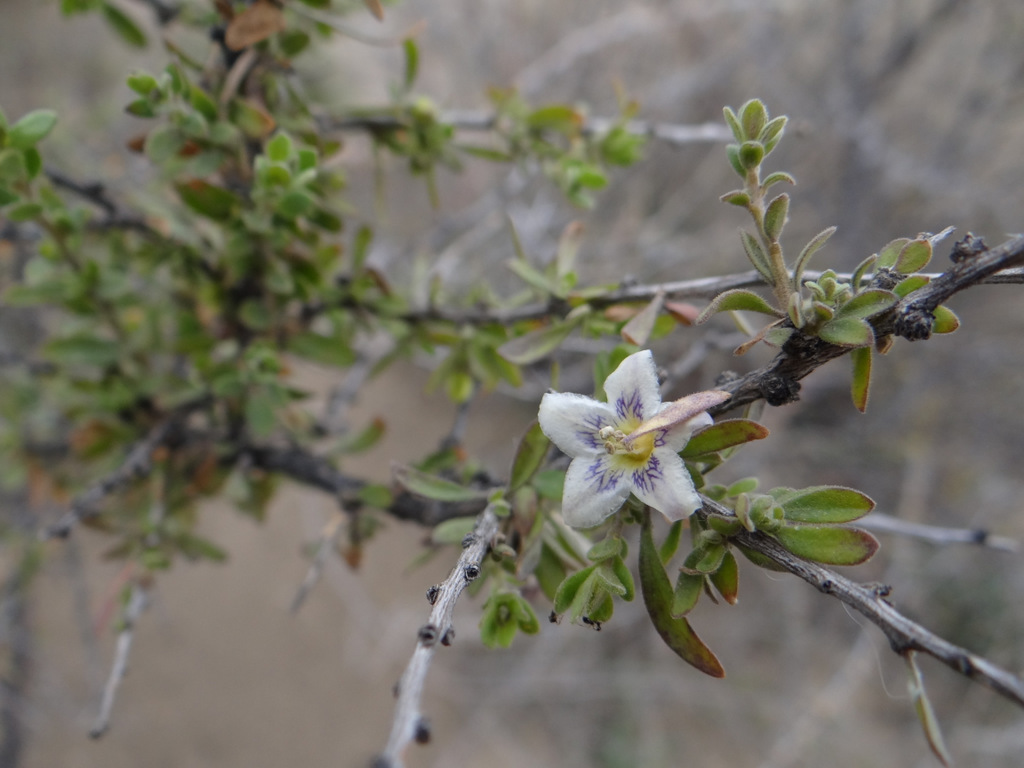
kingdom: Plantae
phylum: Tracheophyta
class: Magnoliopsida
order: Solanales
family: Solanaceae
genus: Lycium
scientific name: Lycium chilense
